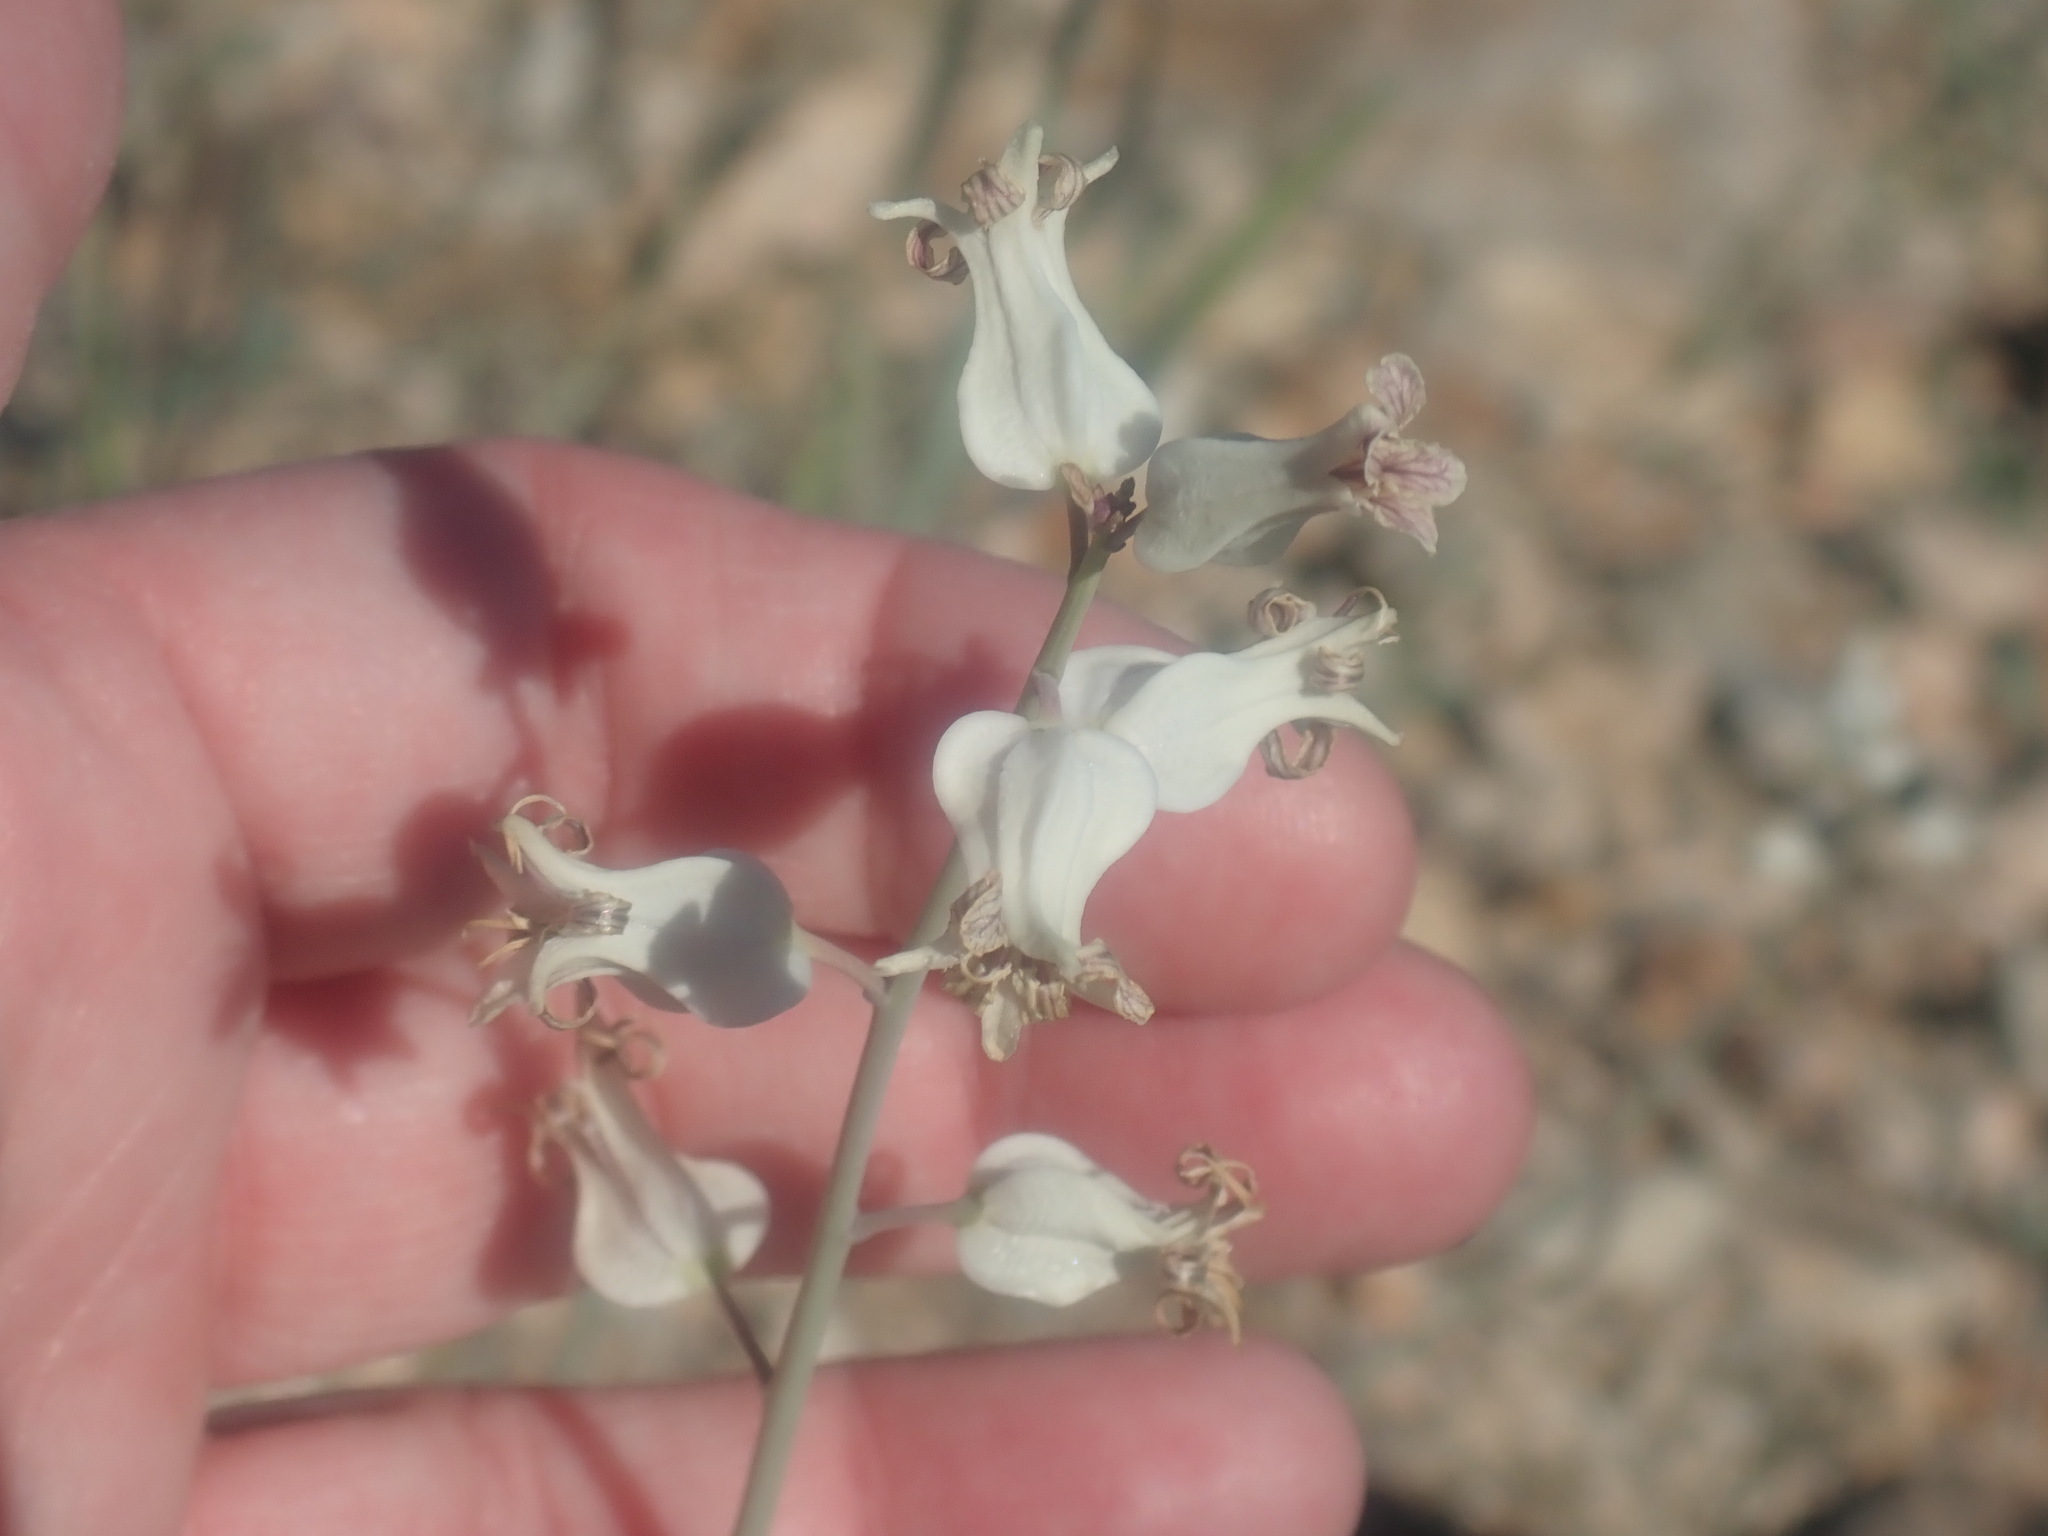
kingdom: Plantae
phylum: Tracheophyta
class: Magnoliopsida
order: Brassicales
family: Brassicaceae
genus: Streptanthus
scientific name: Streptanthus carinatus
